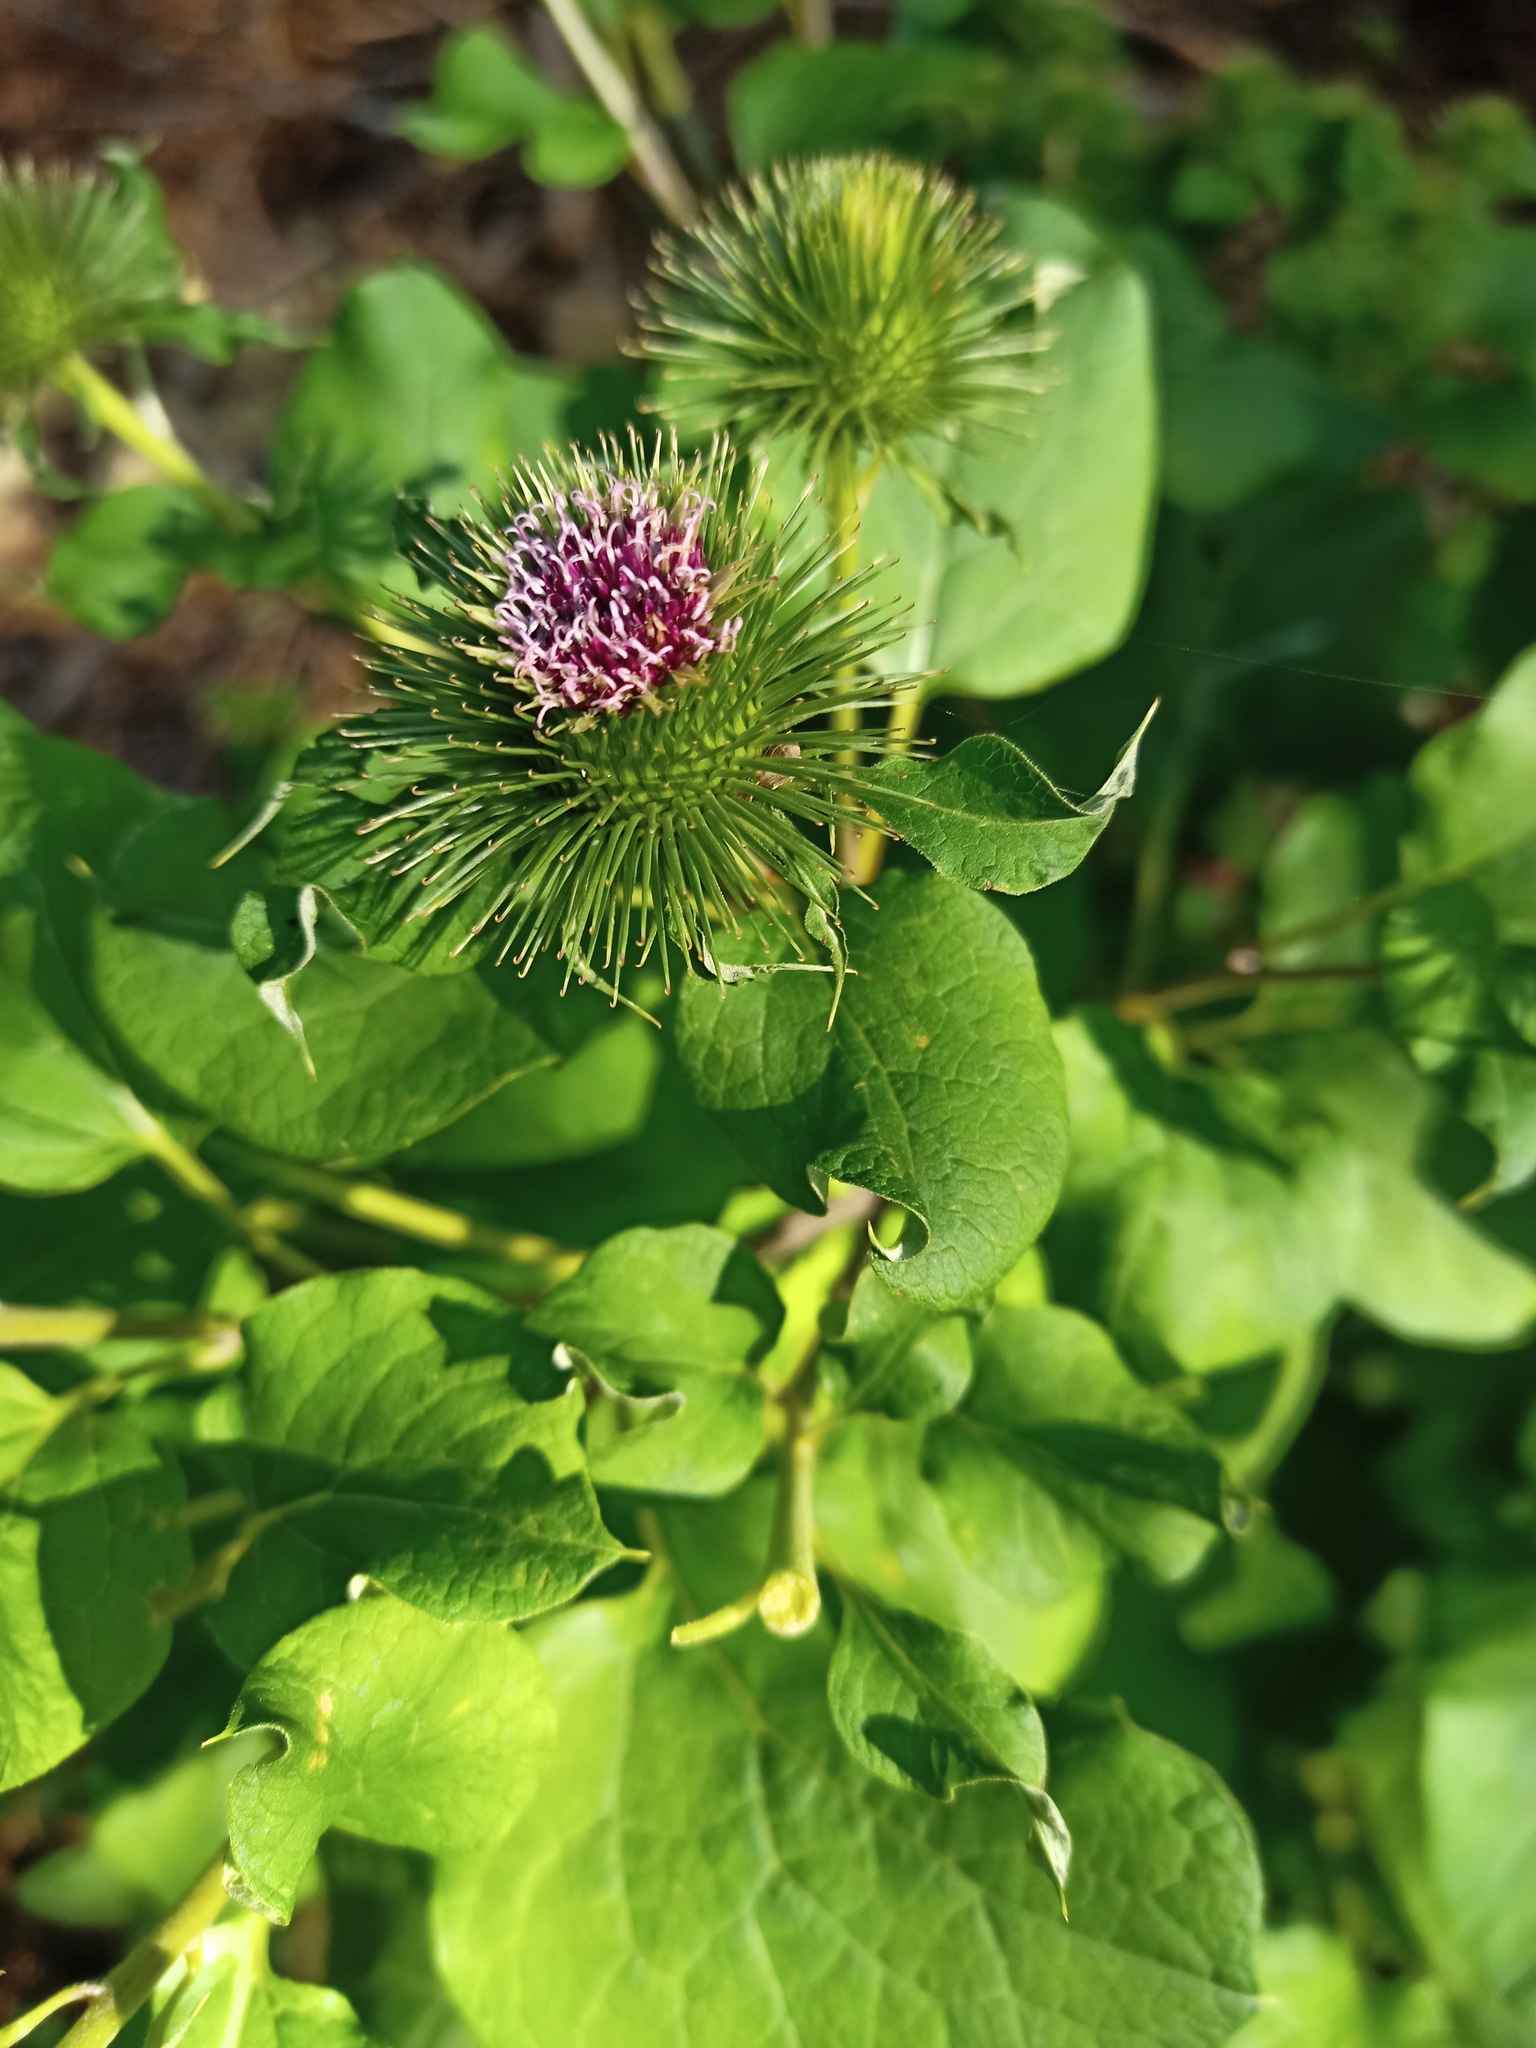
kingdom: Plantae
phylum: Tracheophyta
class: Magnoliopsida
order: Asterales
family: Asteraceae
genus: Arctium
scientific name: Arctium lappa
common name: Greater burdock
